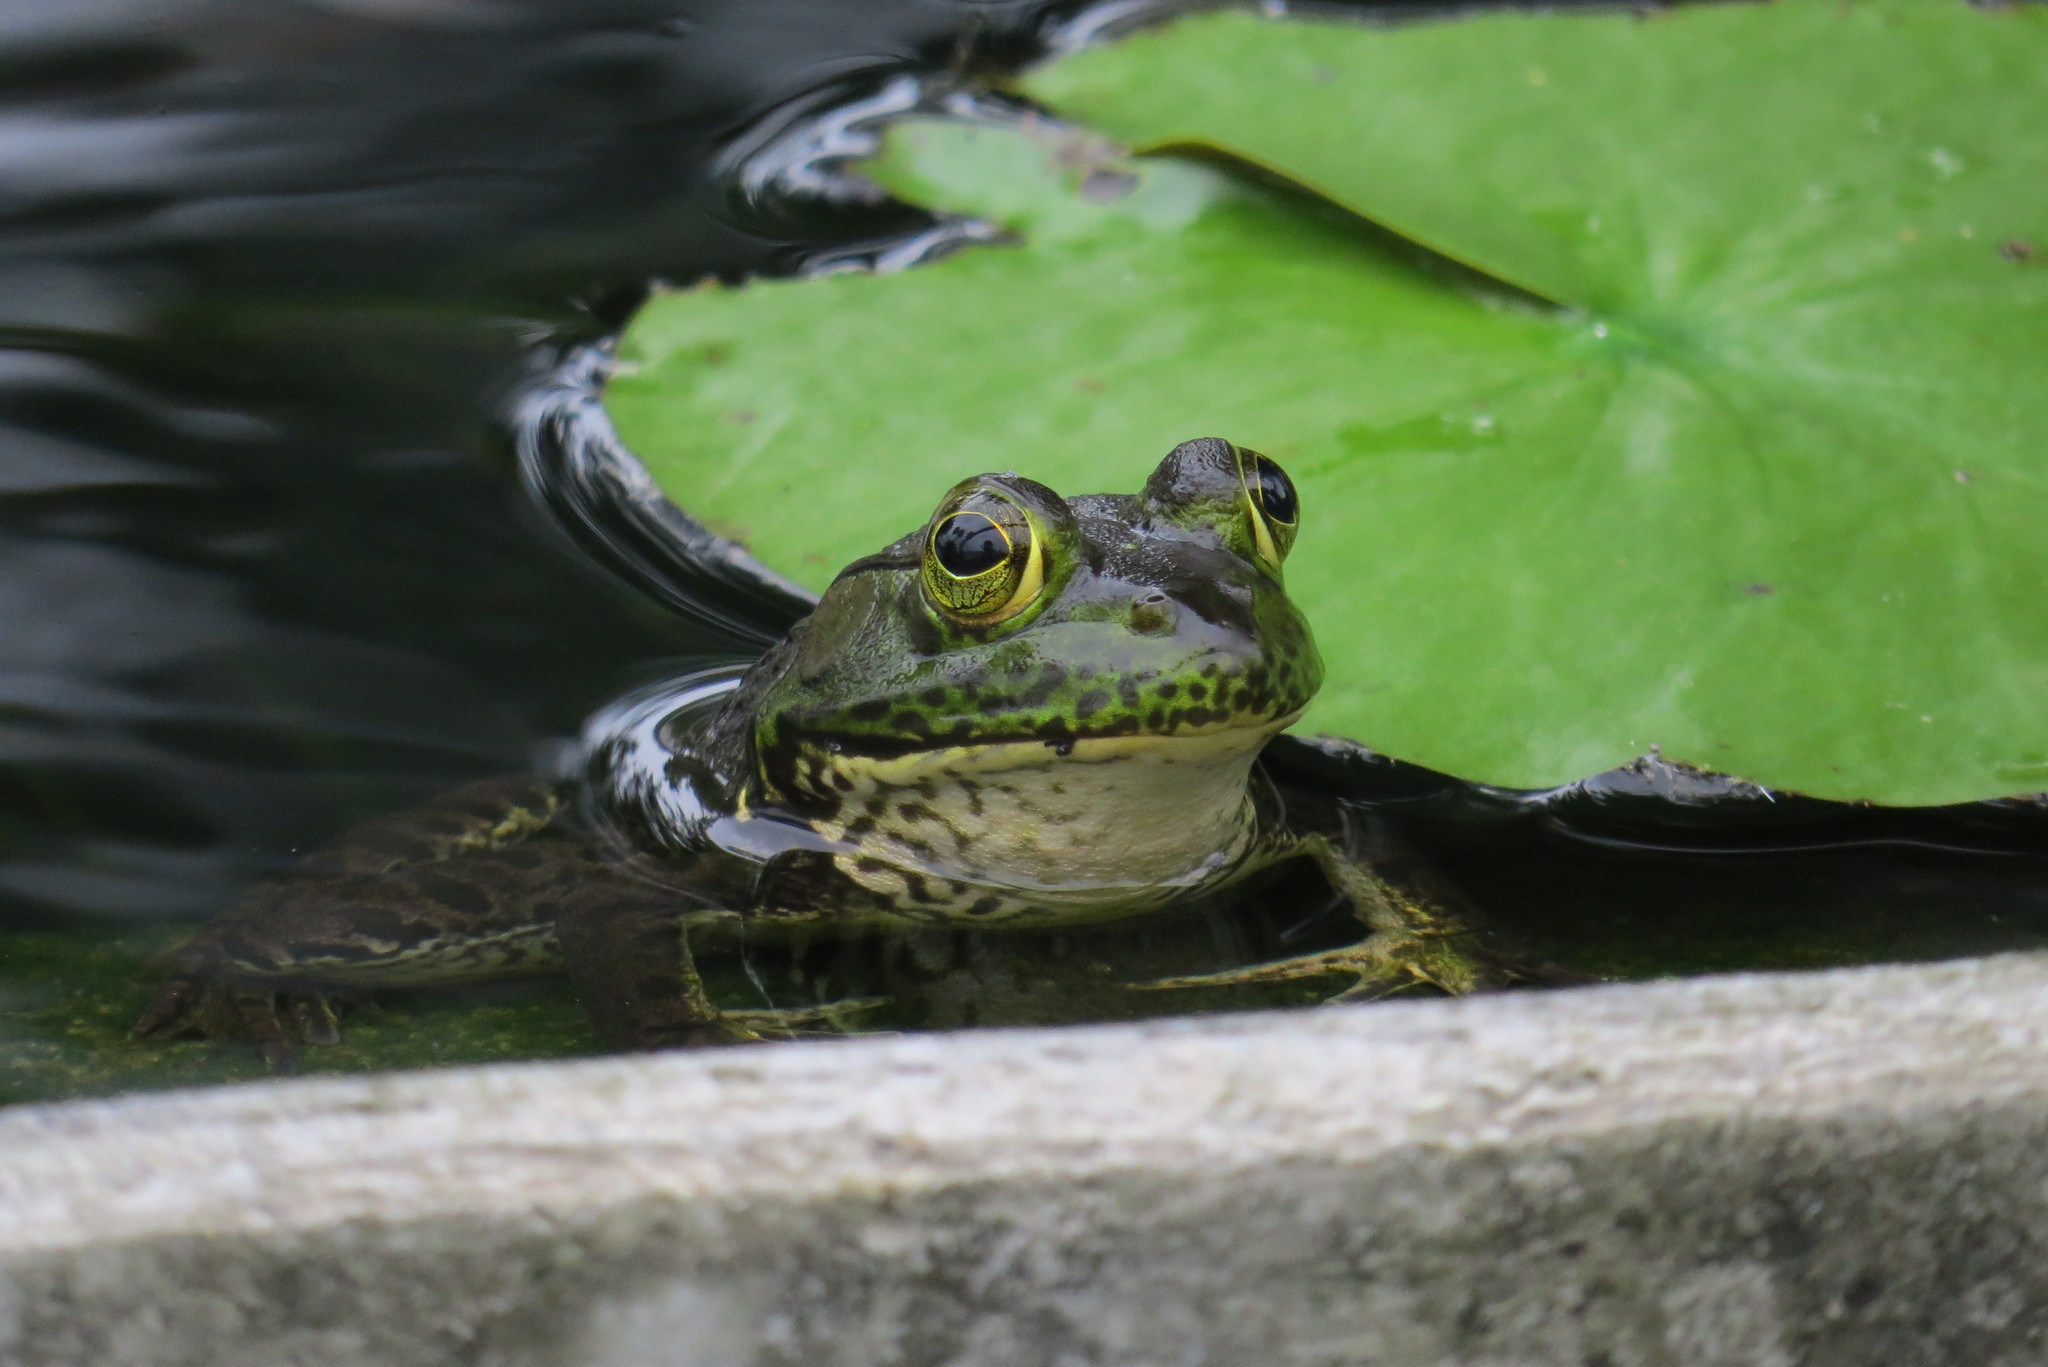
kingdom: Animalia
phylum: Chordata
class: Amphibia
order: Anura
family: Ranidae
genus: Lithobates
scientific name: Lithobates catesbeianus
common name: American bullfrog
